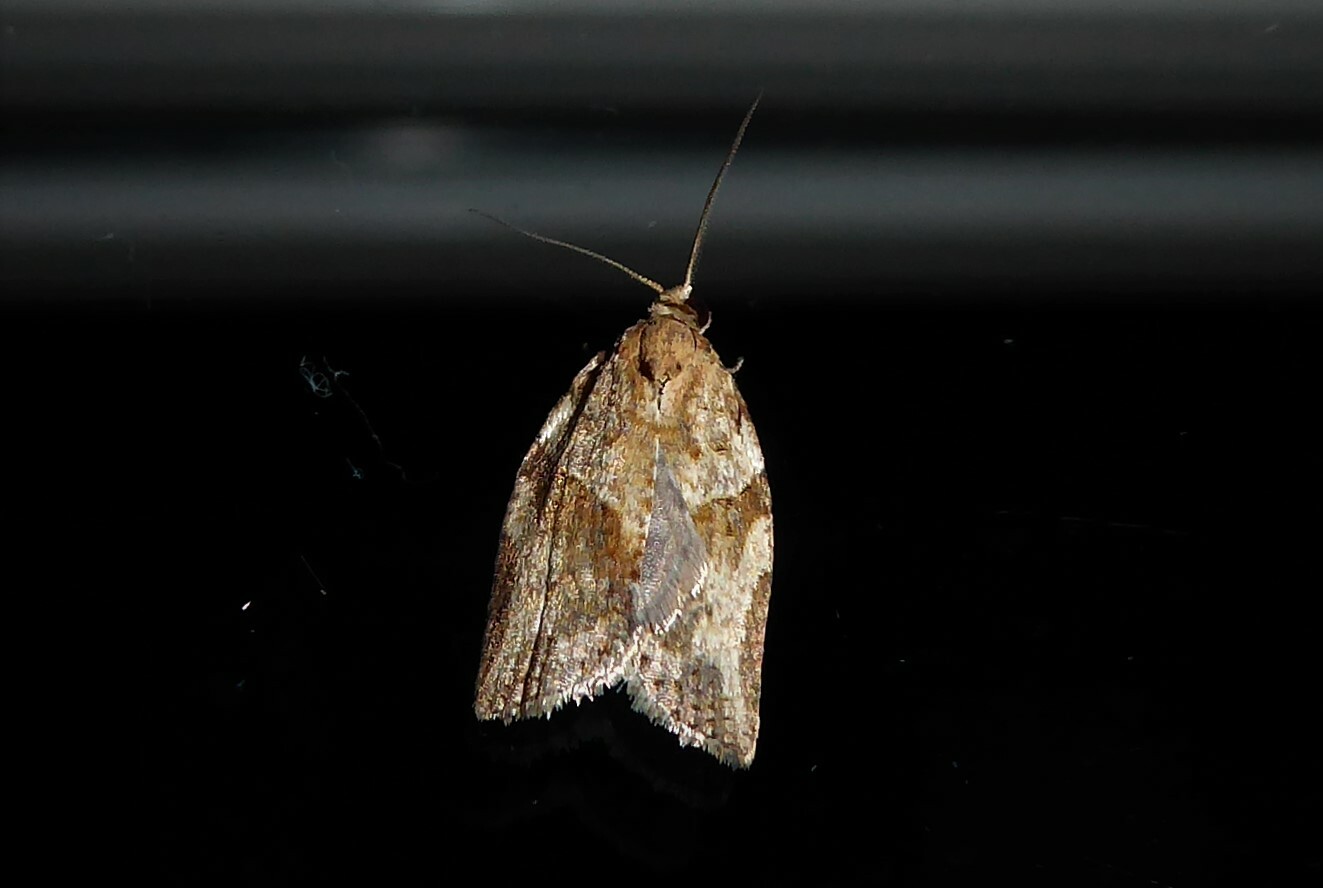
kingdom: Animalia
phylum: Arthropoda
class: Insecta
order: Lepidoptera
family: Tortricidae
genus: Epiphyas
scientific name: Epiphyas postvittana
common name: Light brown apple moth
